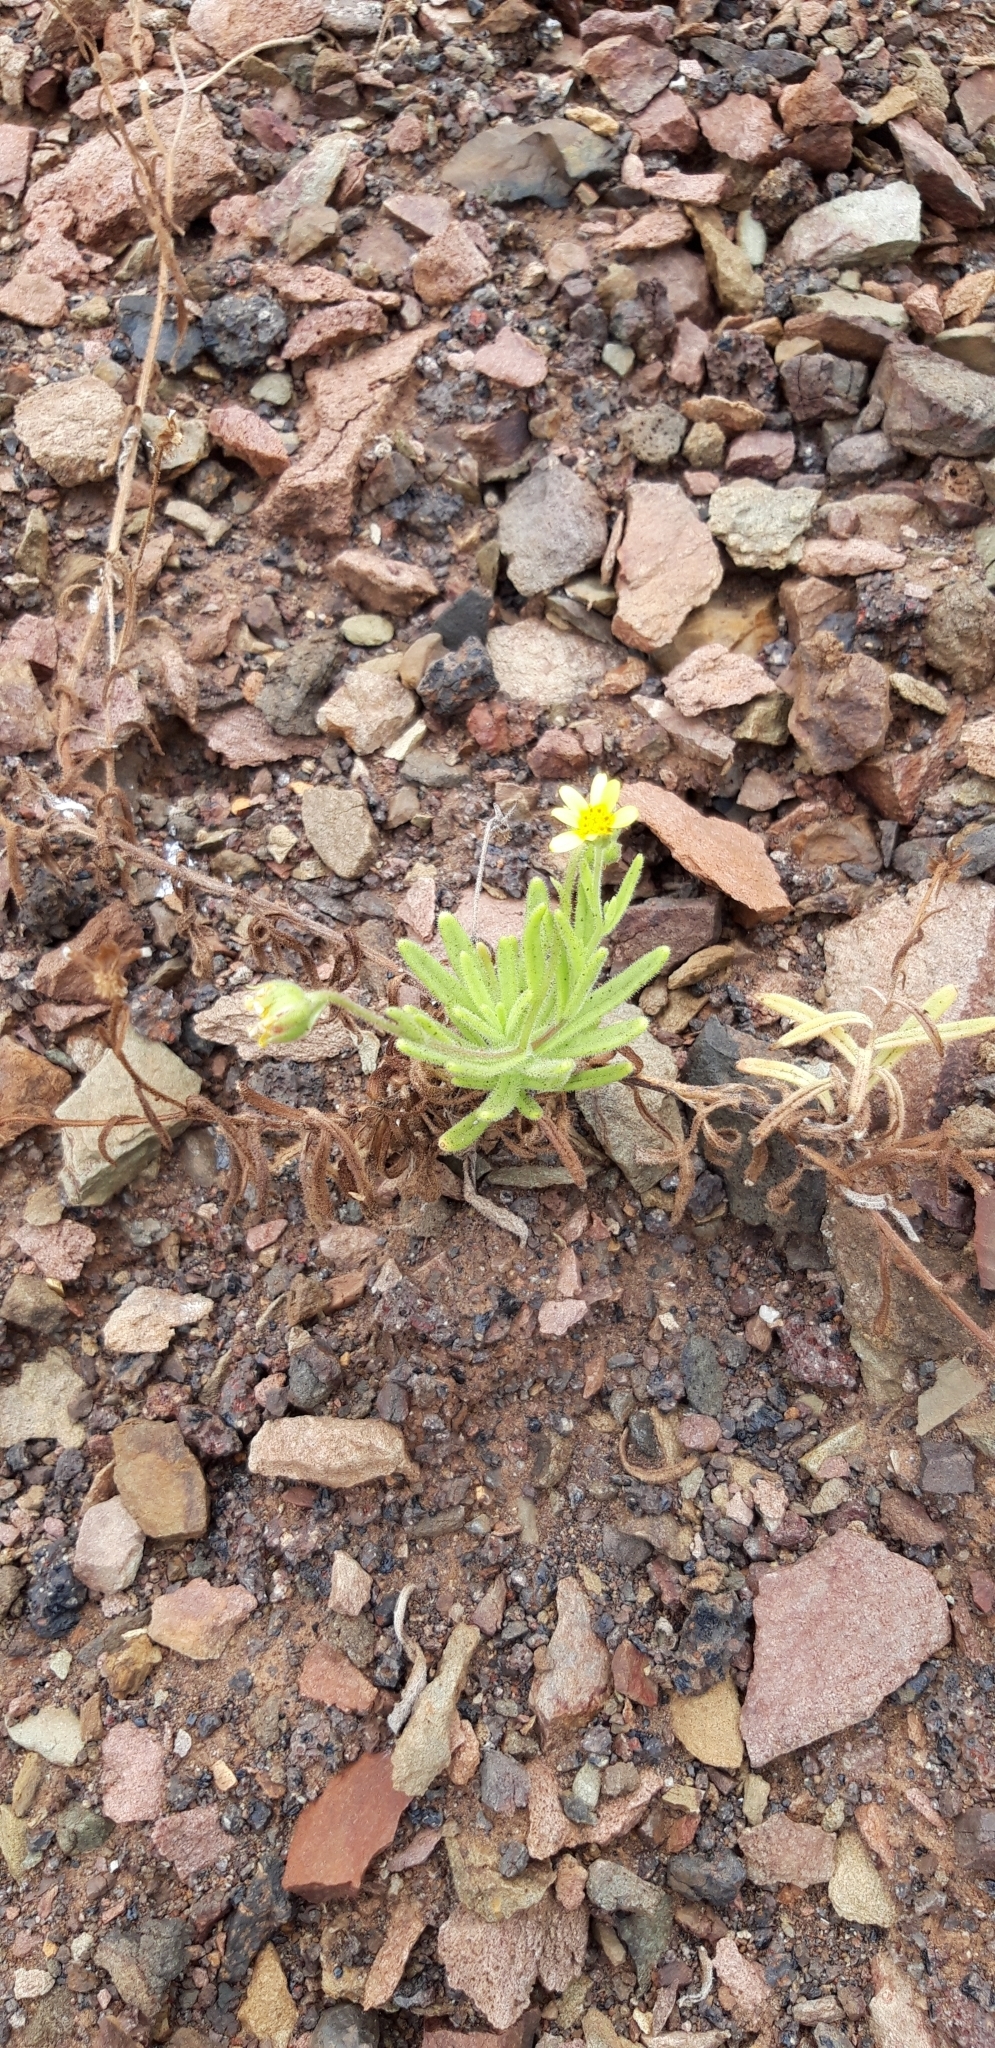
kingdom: Plantae
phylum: Tracheophyta
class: Magnoliopsida
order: Asterales
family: Asteraceae
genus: Osteospermum
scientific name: Osteospermum sanctae-helenae
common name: Boneseed
